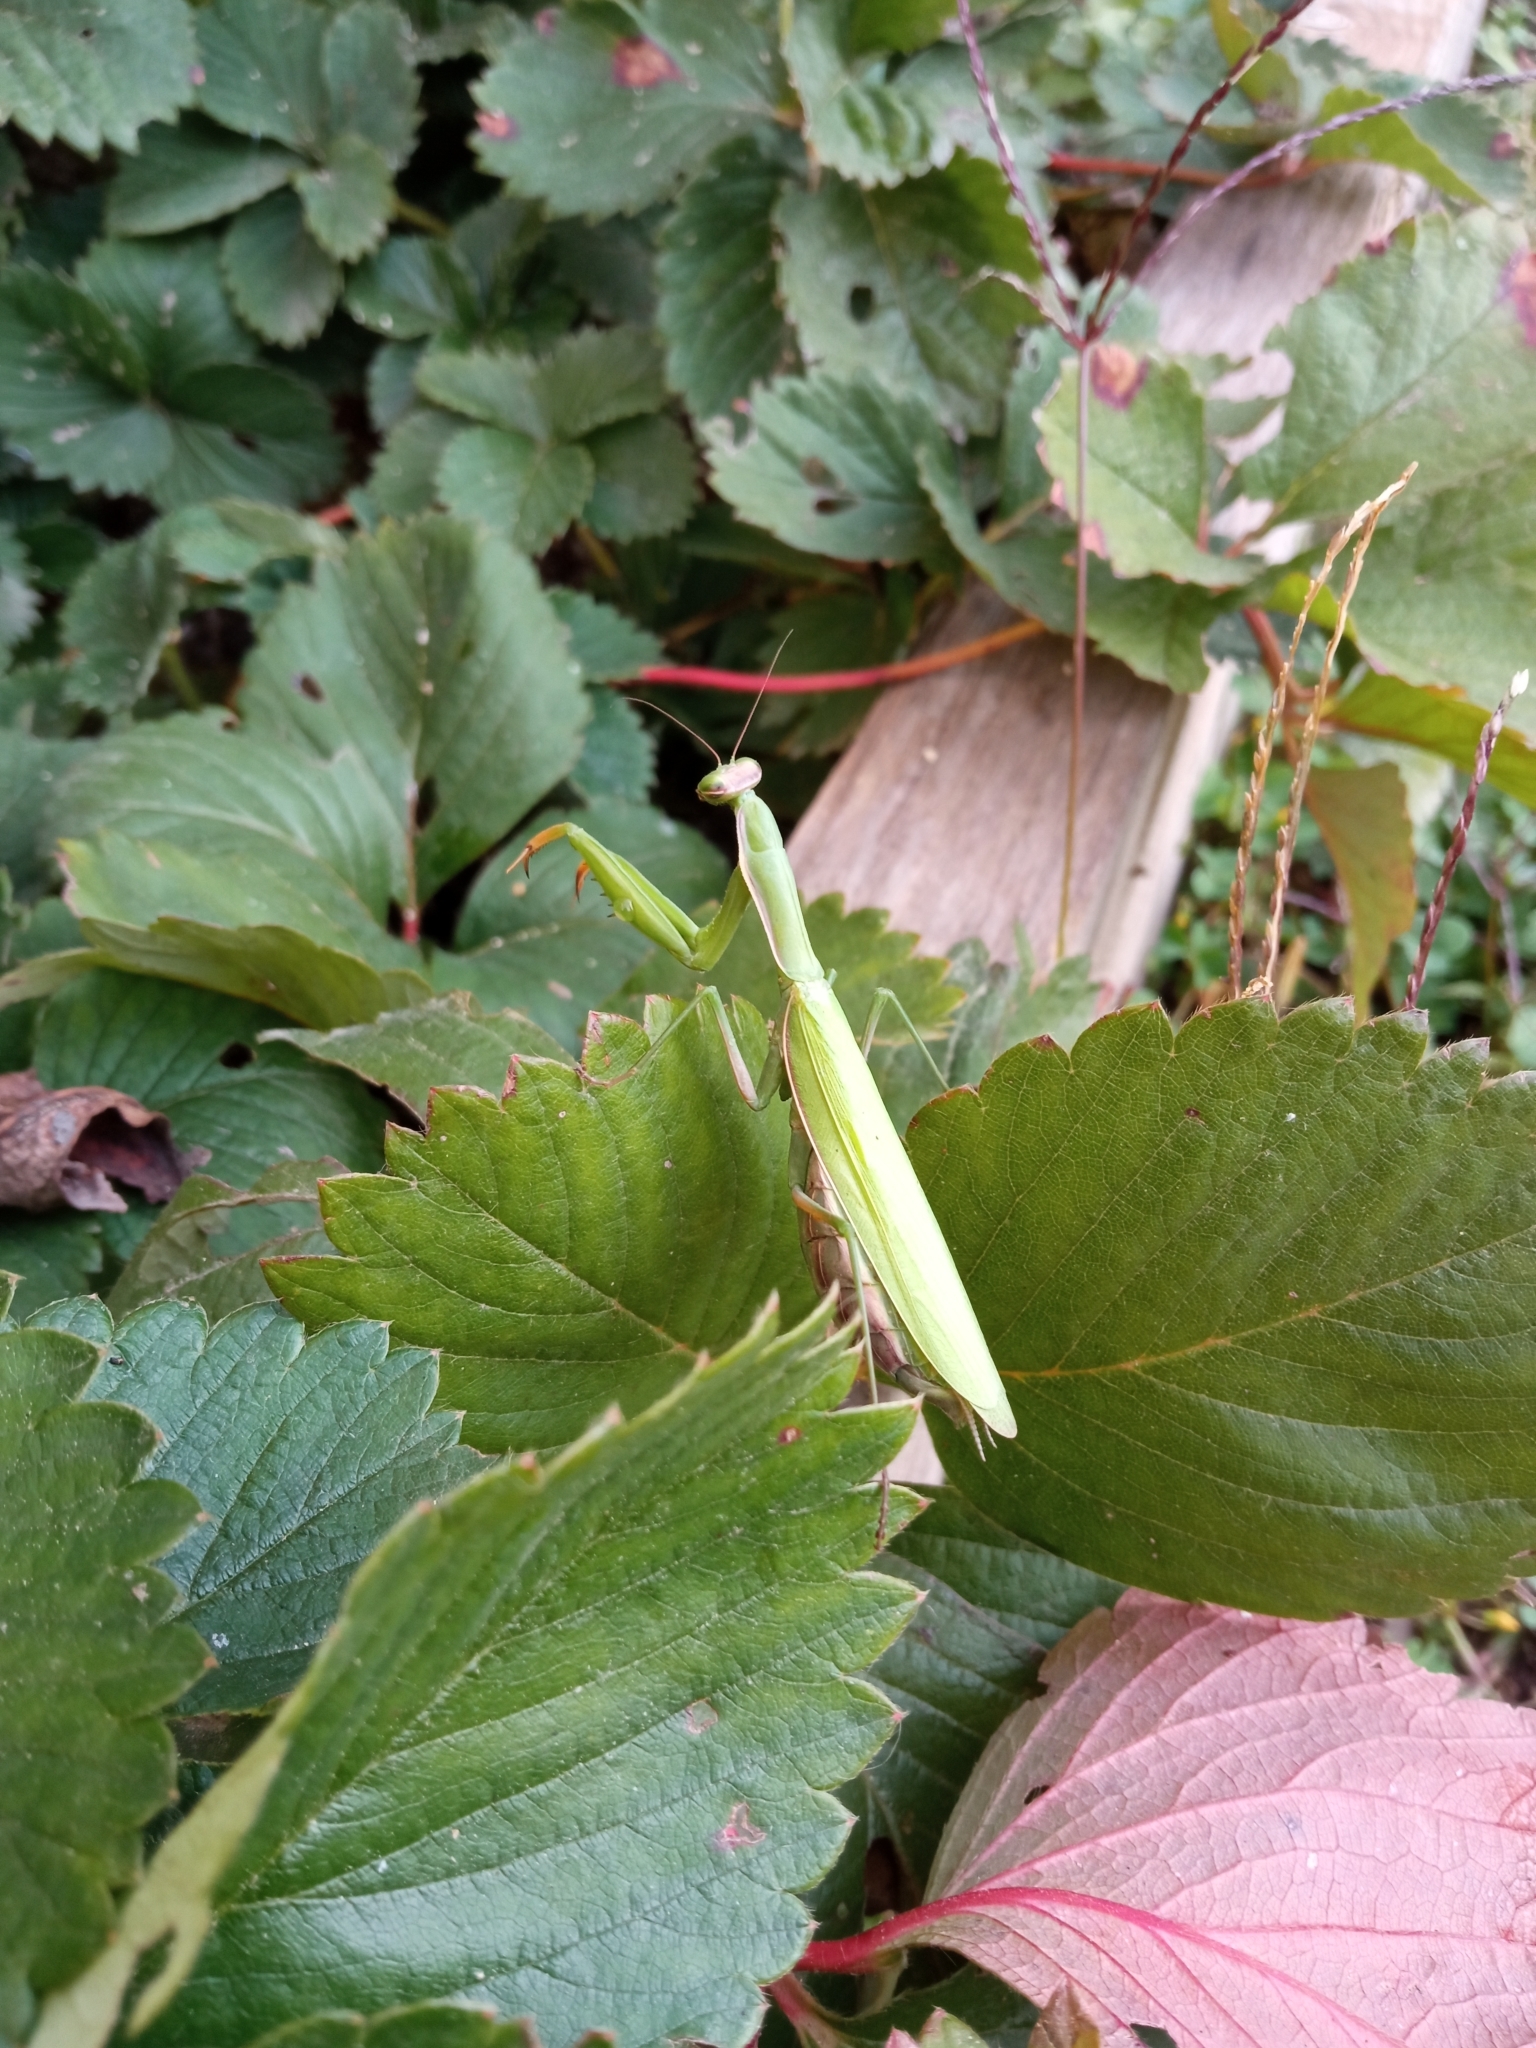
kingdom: Animalia
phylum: Arthropoda
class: Insecta
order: Mantodea
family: Mantidae
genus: Mantis
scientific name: Mantis religiosa
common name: Praying mantis
